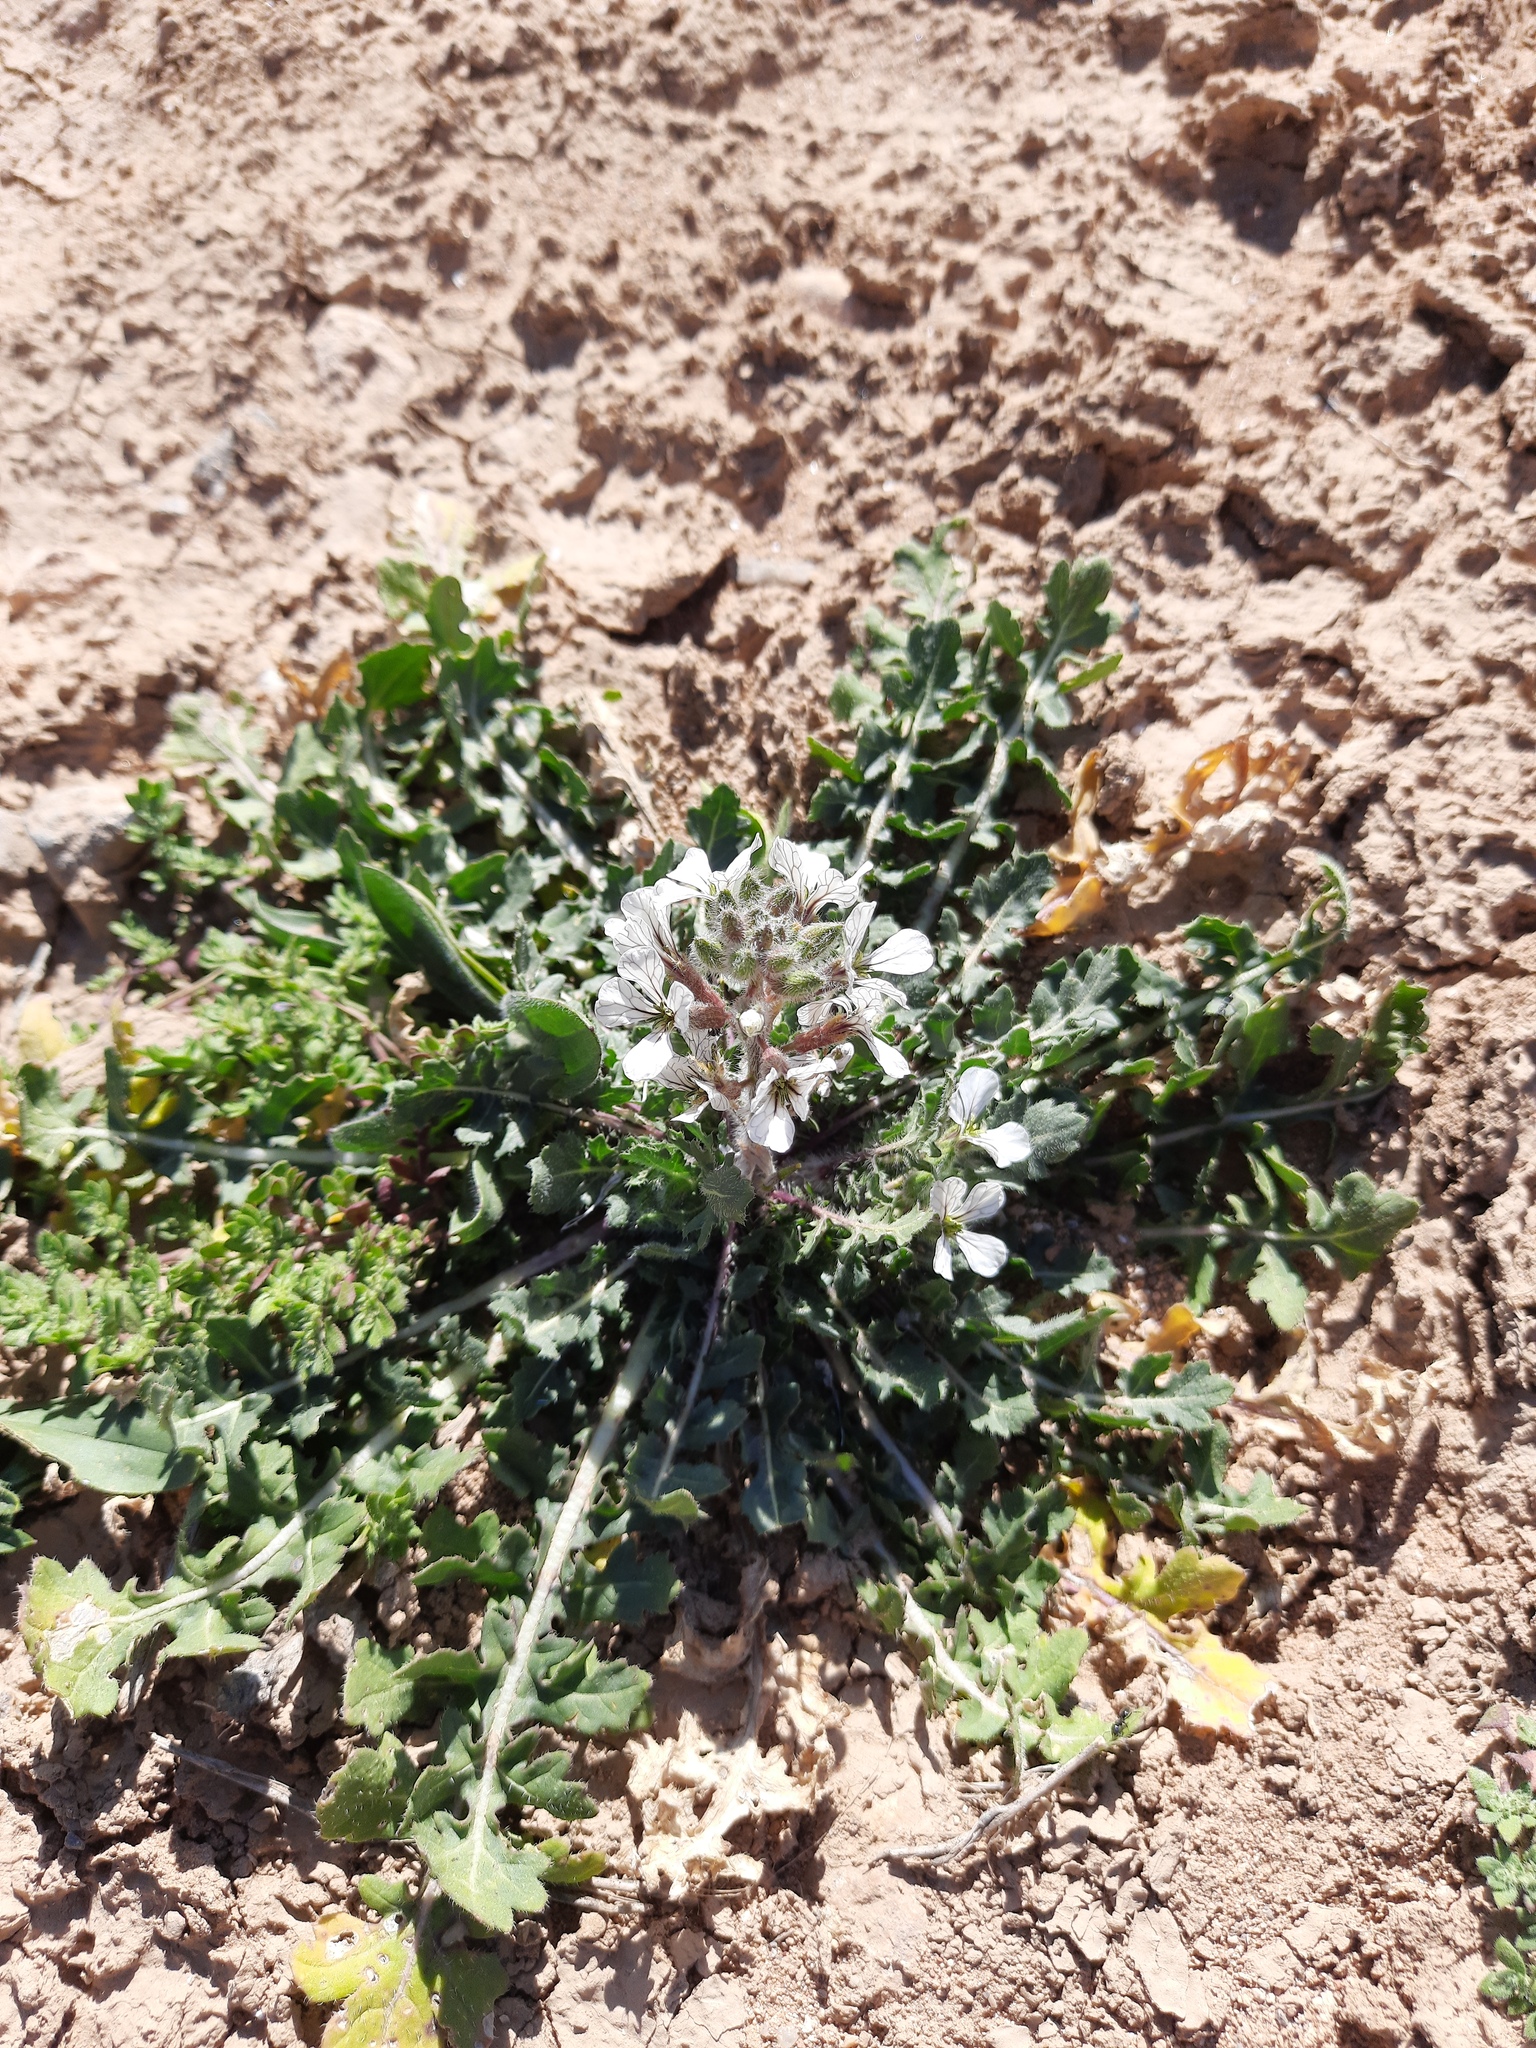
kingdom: Plantae
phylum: Tracheophyta
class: Magnoliopsida
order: Brassicales
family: Brassicaceae
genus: Eruca
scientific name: Eruca pinnatifida
